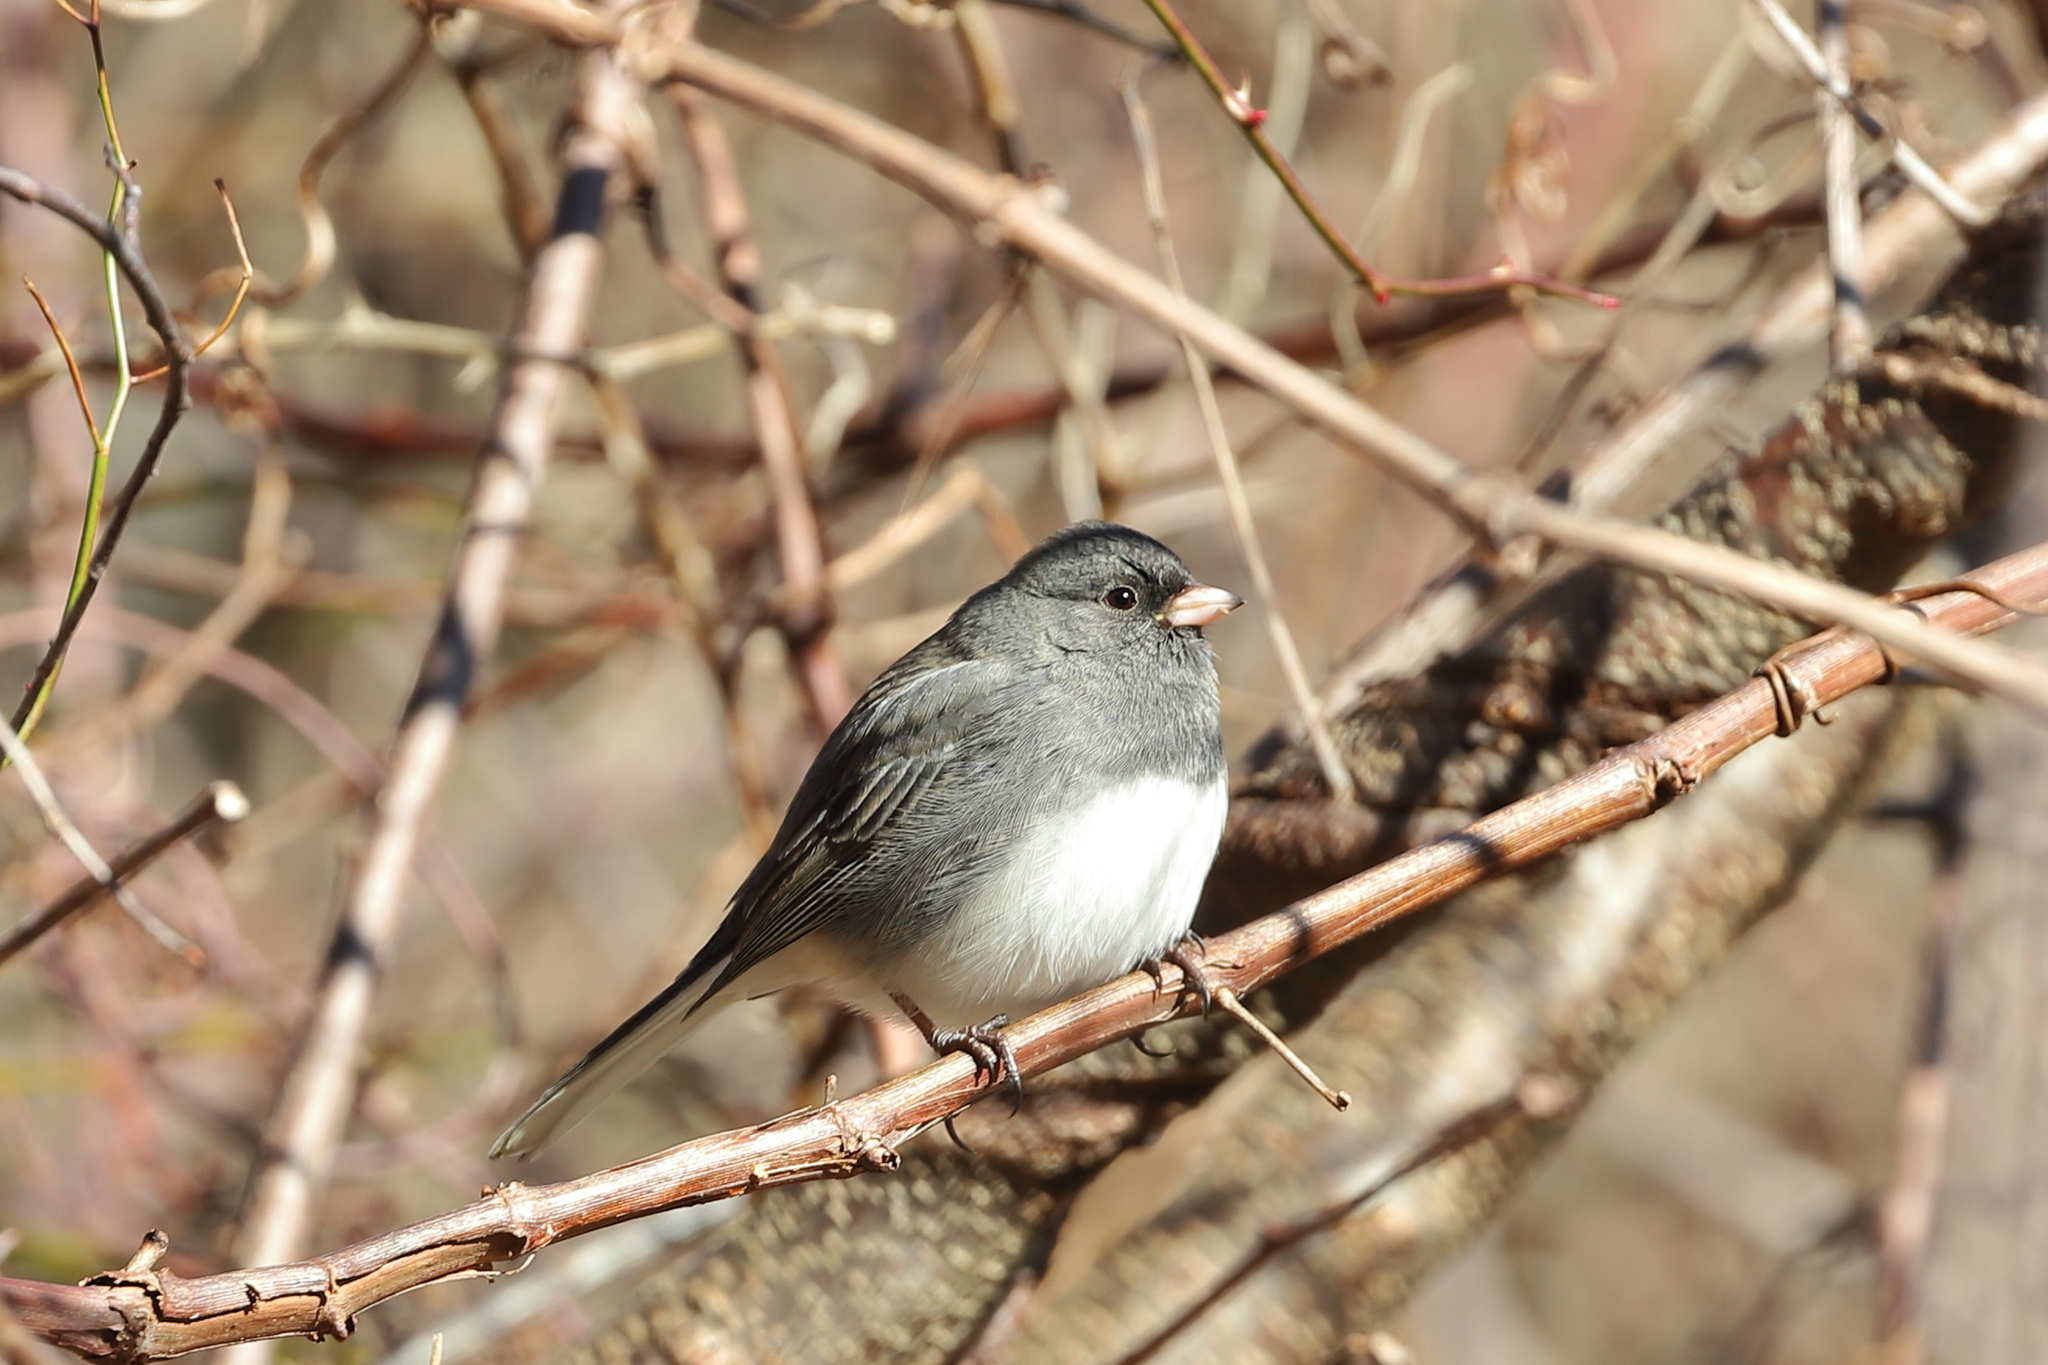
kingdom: Animalia
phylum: Chordata
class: Aves
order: Passeriformes
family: Passerellidae
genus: Junco
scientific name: Junco hyemalis
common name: Dark-eyed junco
